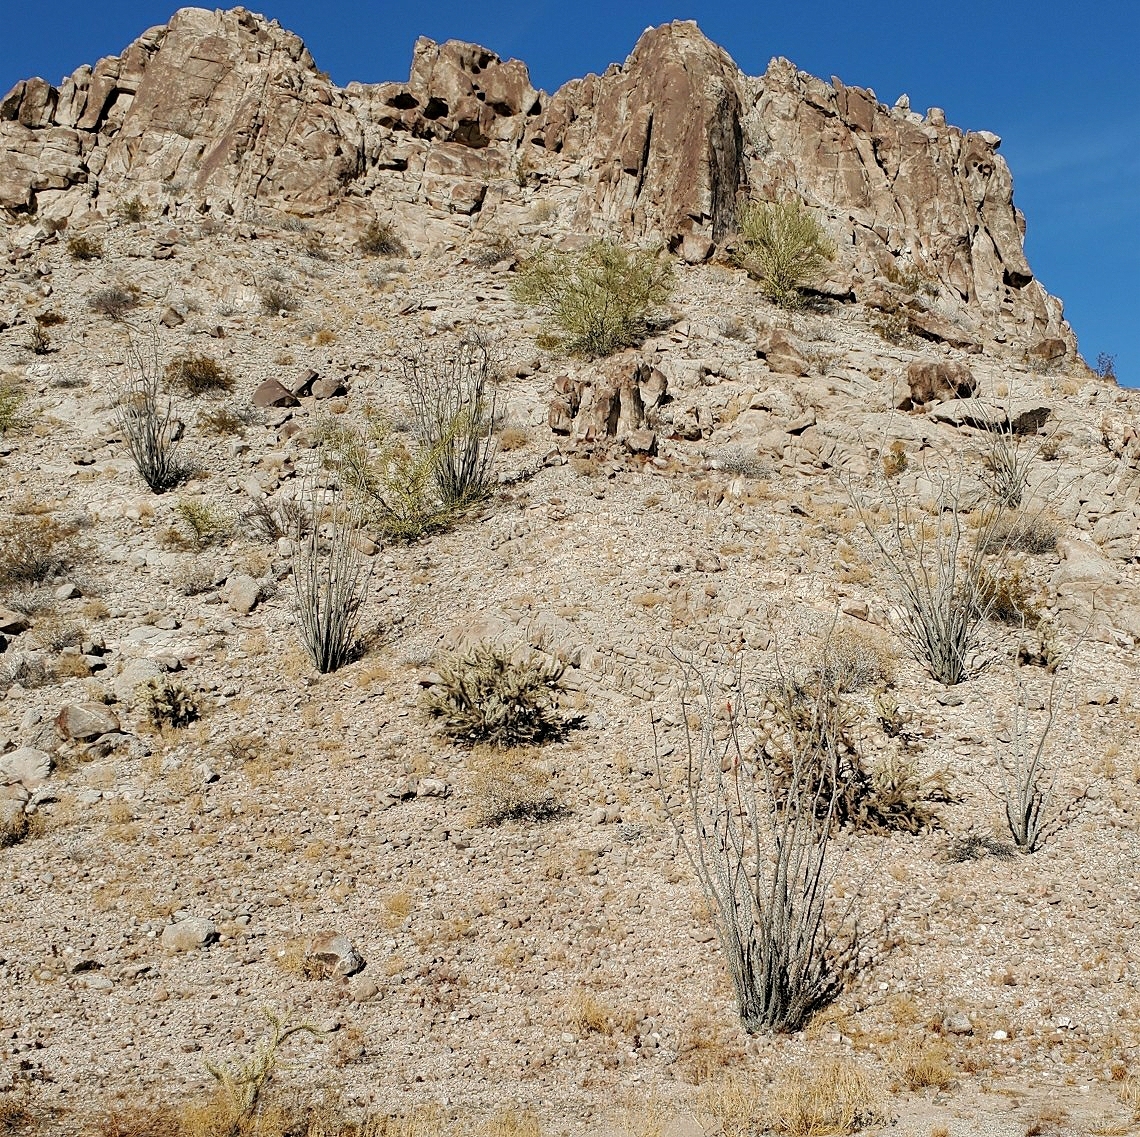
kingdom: Plantae
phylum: Tracheophyta
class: Magnoliopsida
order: Ericales
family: Fouquieriaceae
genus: Fouquieria
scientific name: Fouquieria splendens
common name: Vine-cactus
